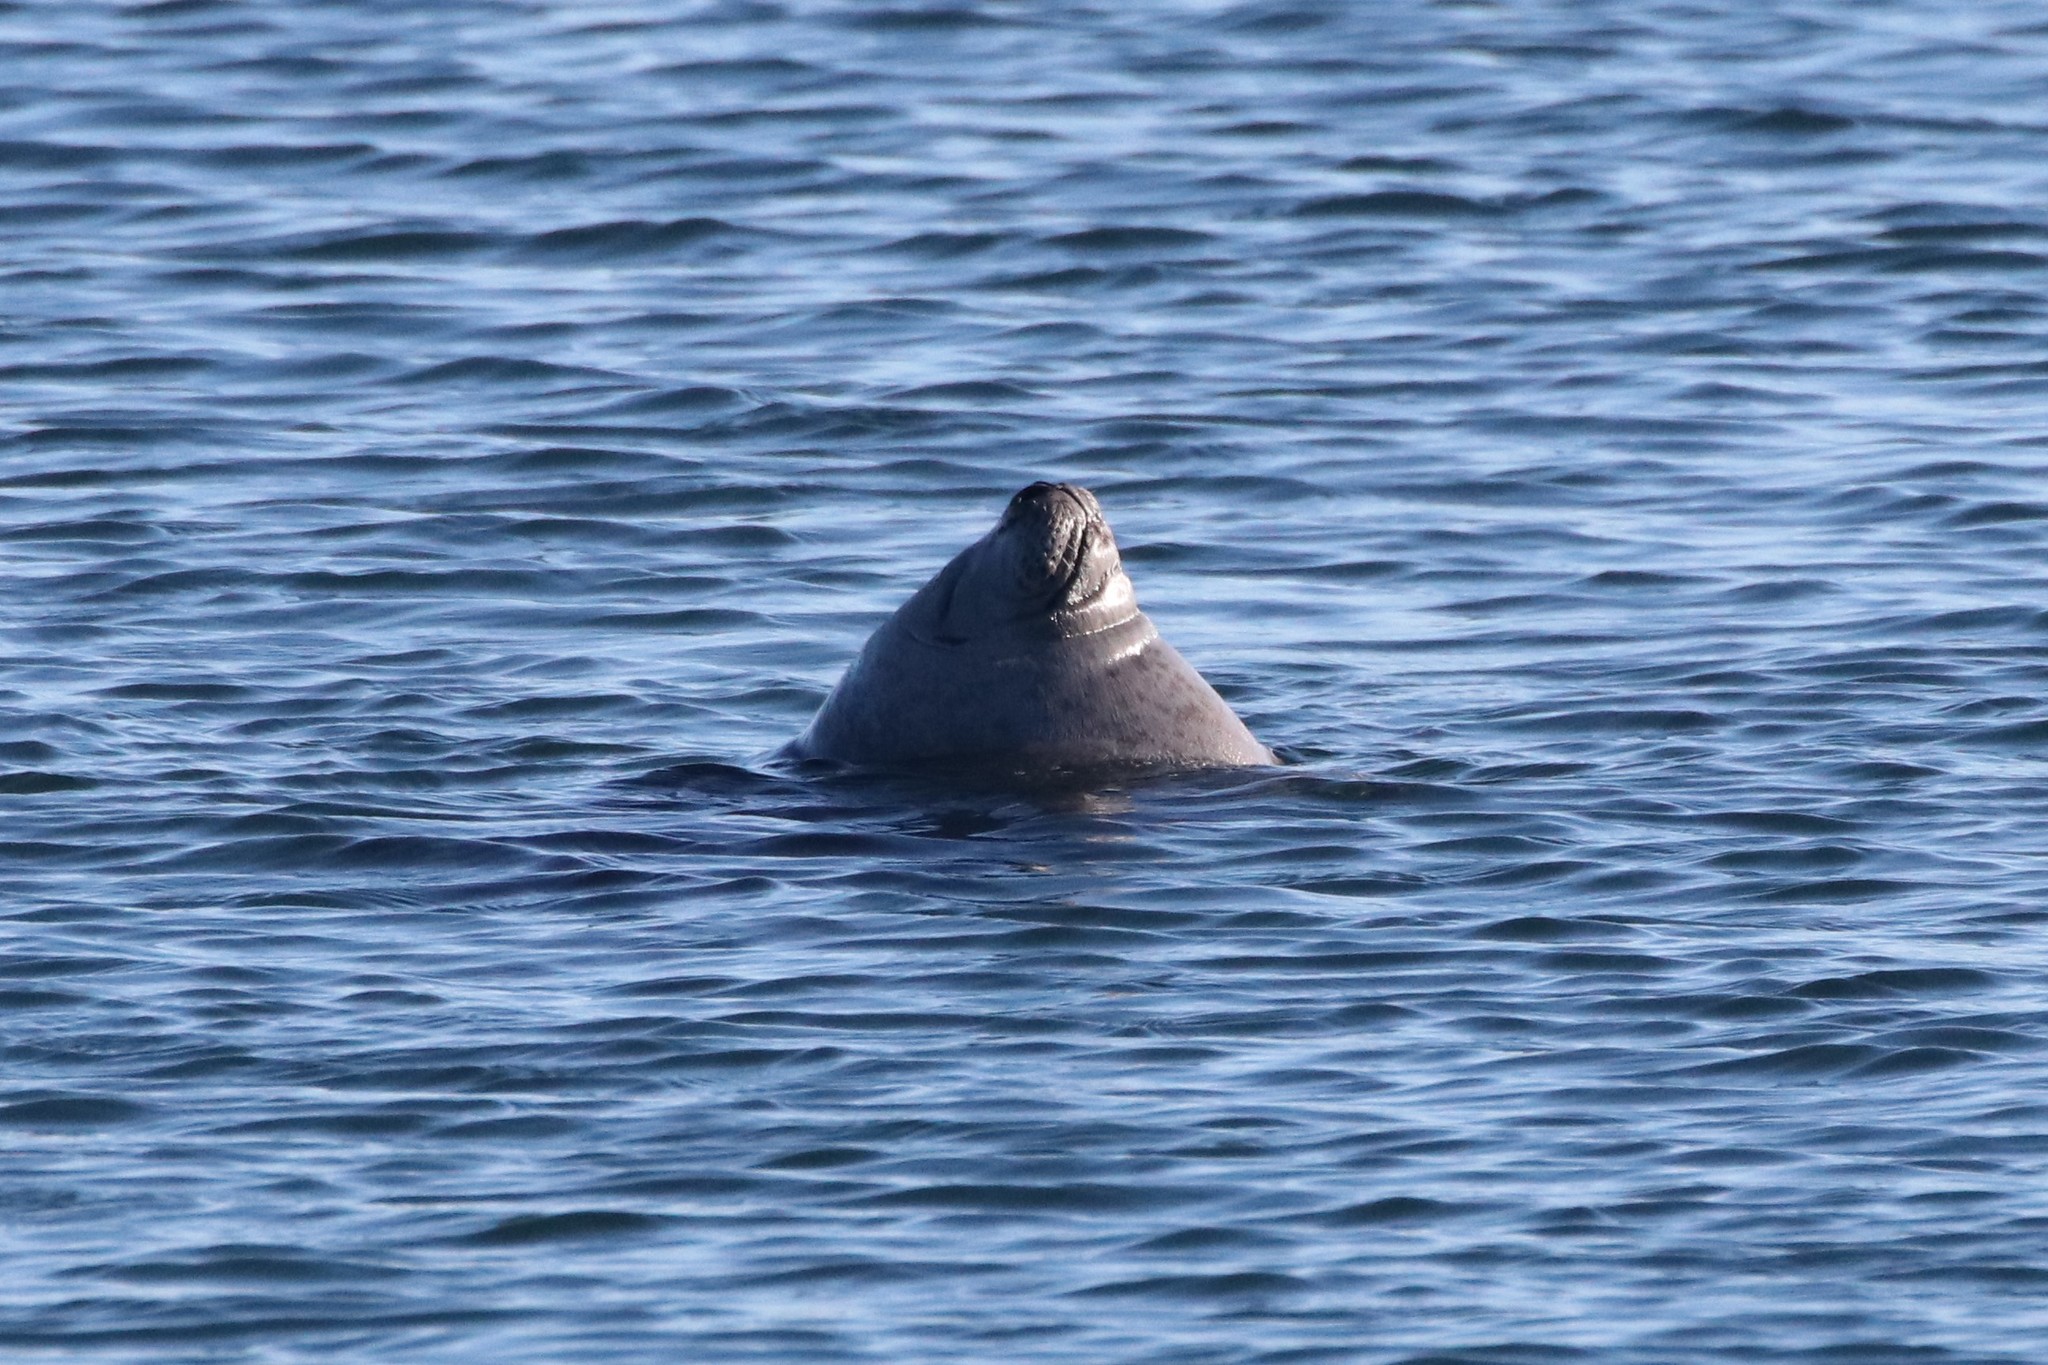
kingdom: Animalia
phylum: Chordata
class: Mammalia
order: Carnivora
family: Phocidae
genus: Phoca
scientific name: Phoca vitulina
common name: Harbor seal
